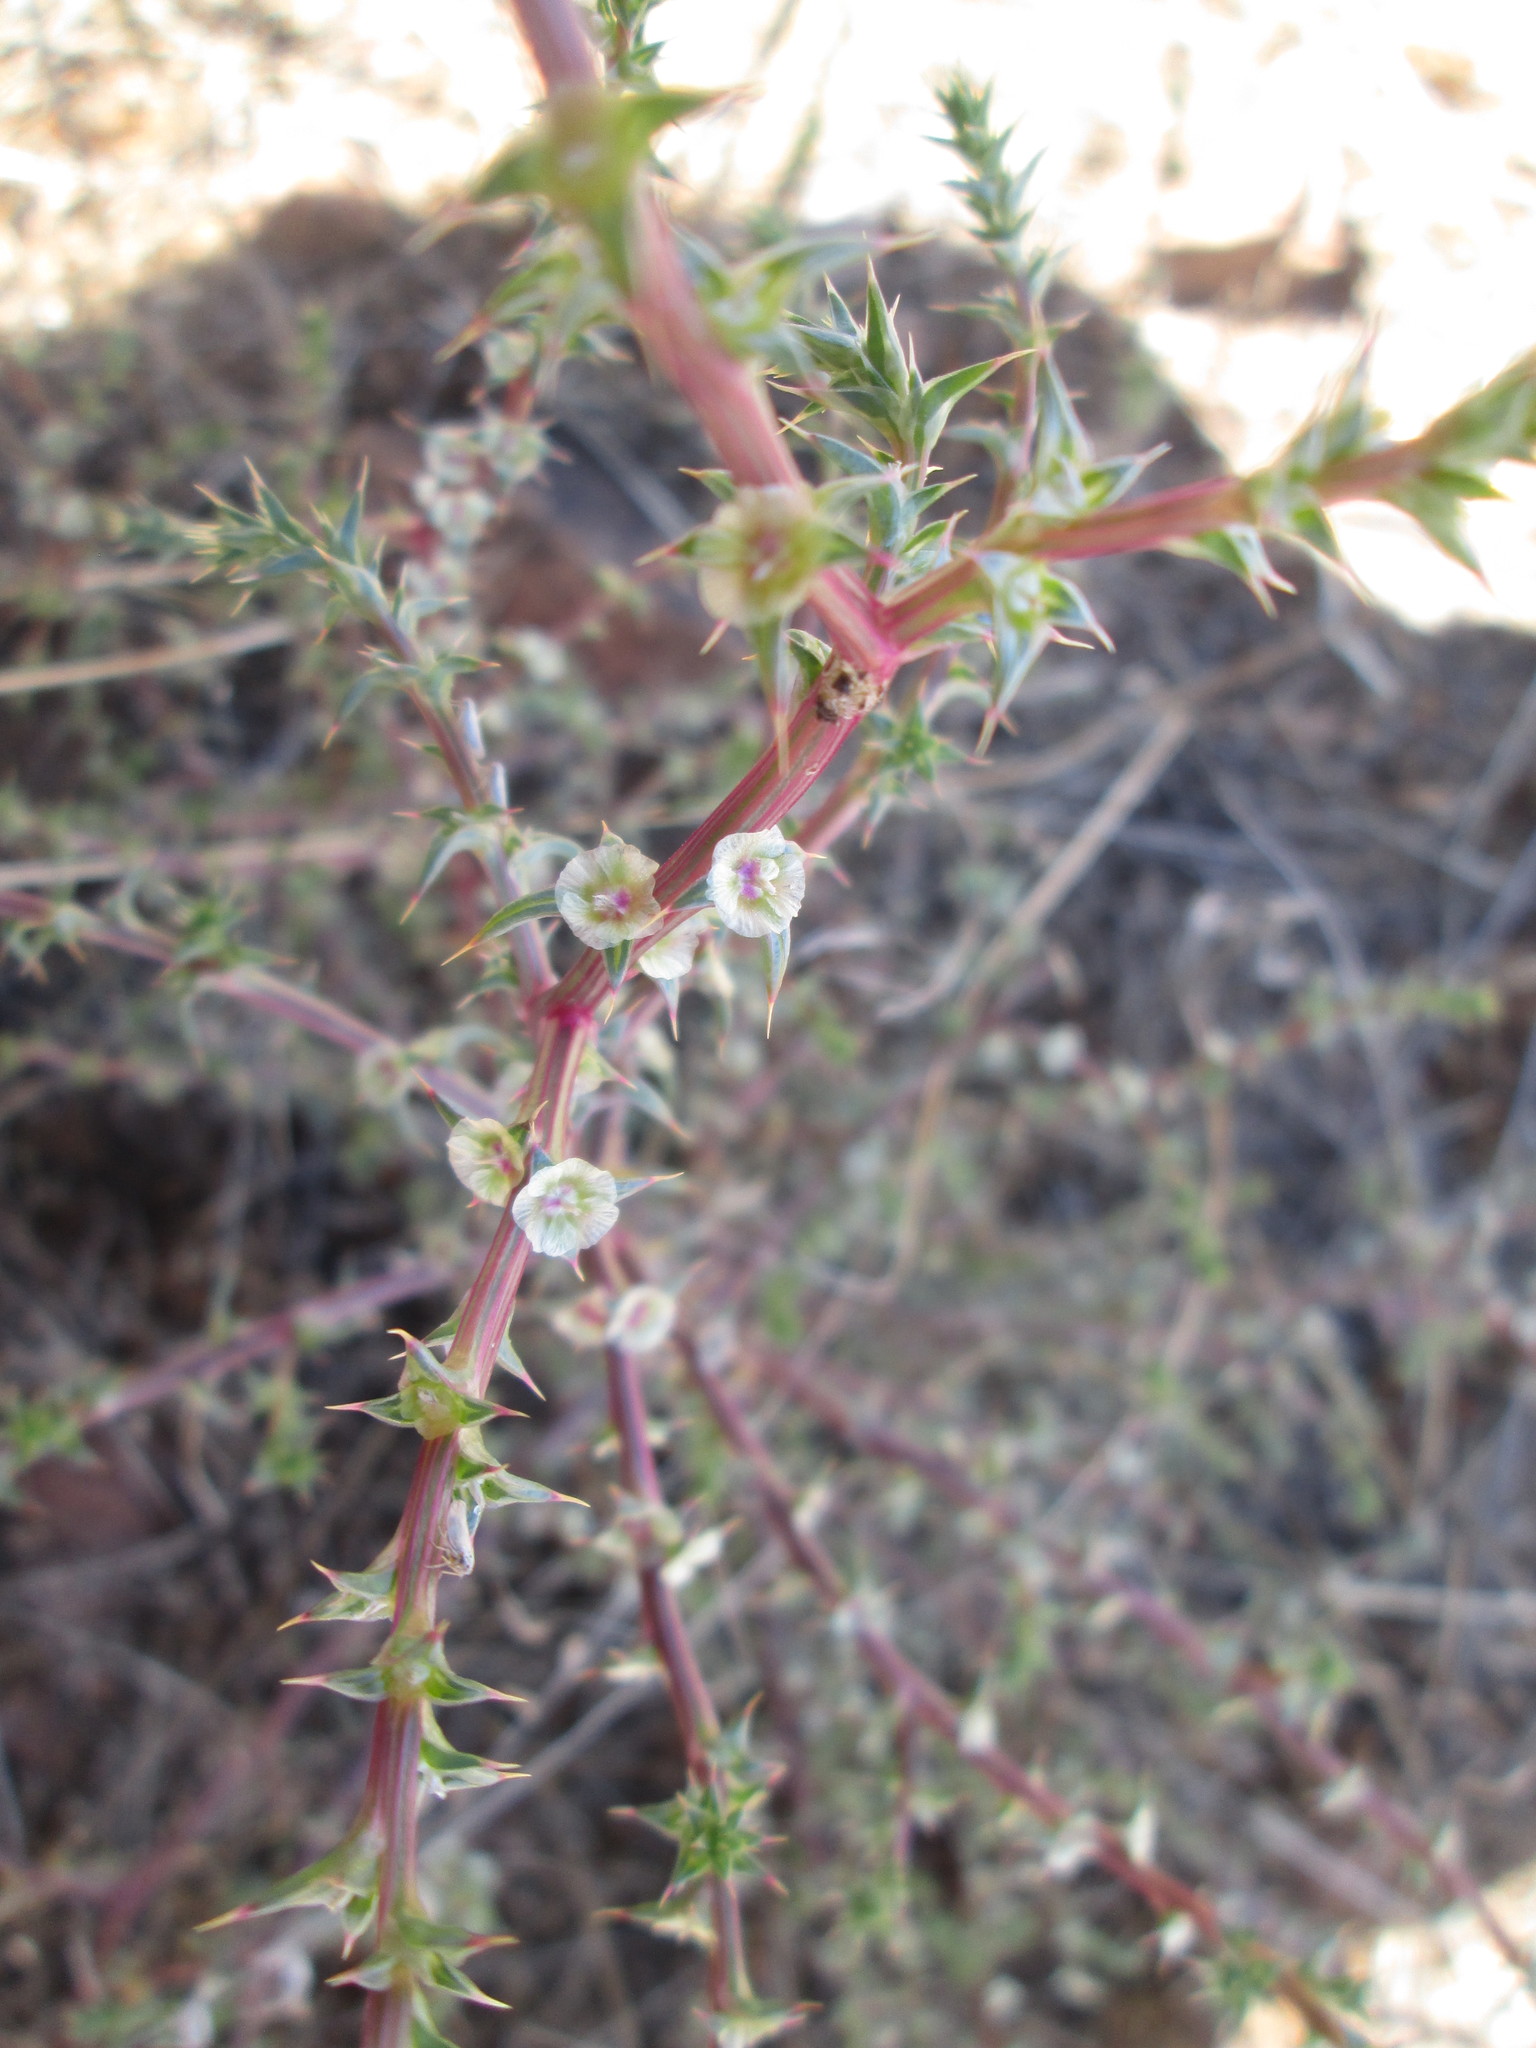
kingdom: Plantae
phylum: Tracheophyta
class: Magnoliopsida
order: Caryophyllales
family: Amaranthaceae
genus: Salsola
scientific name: Salsola kali
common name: Saltwort
